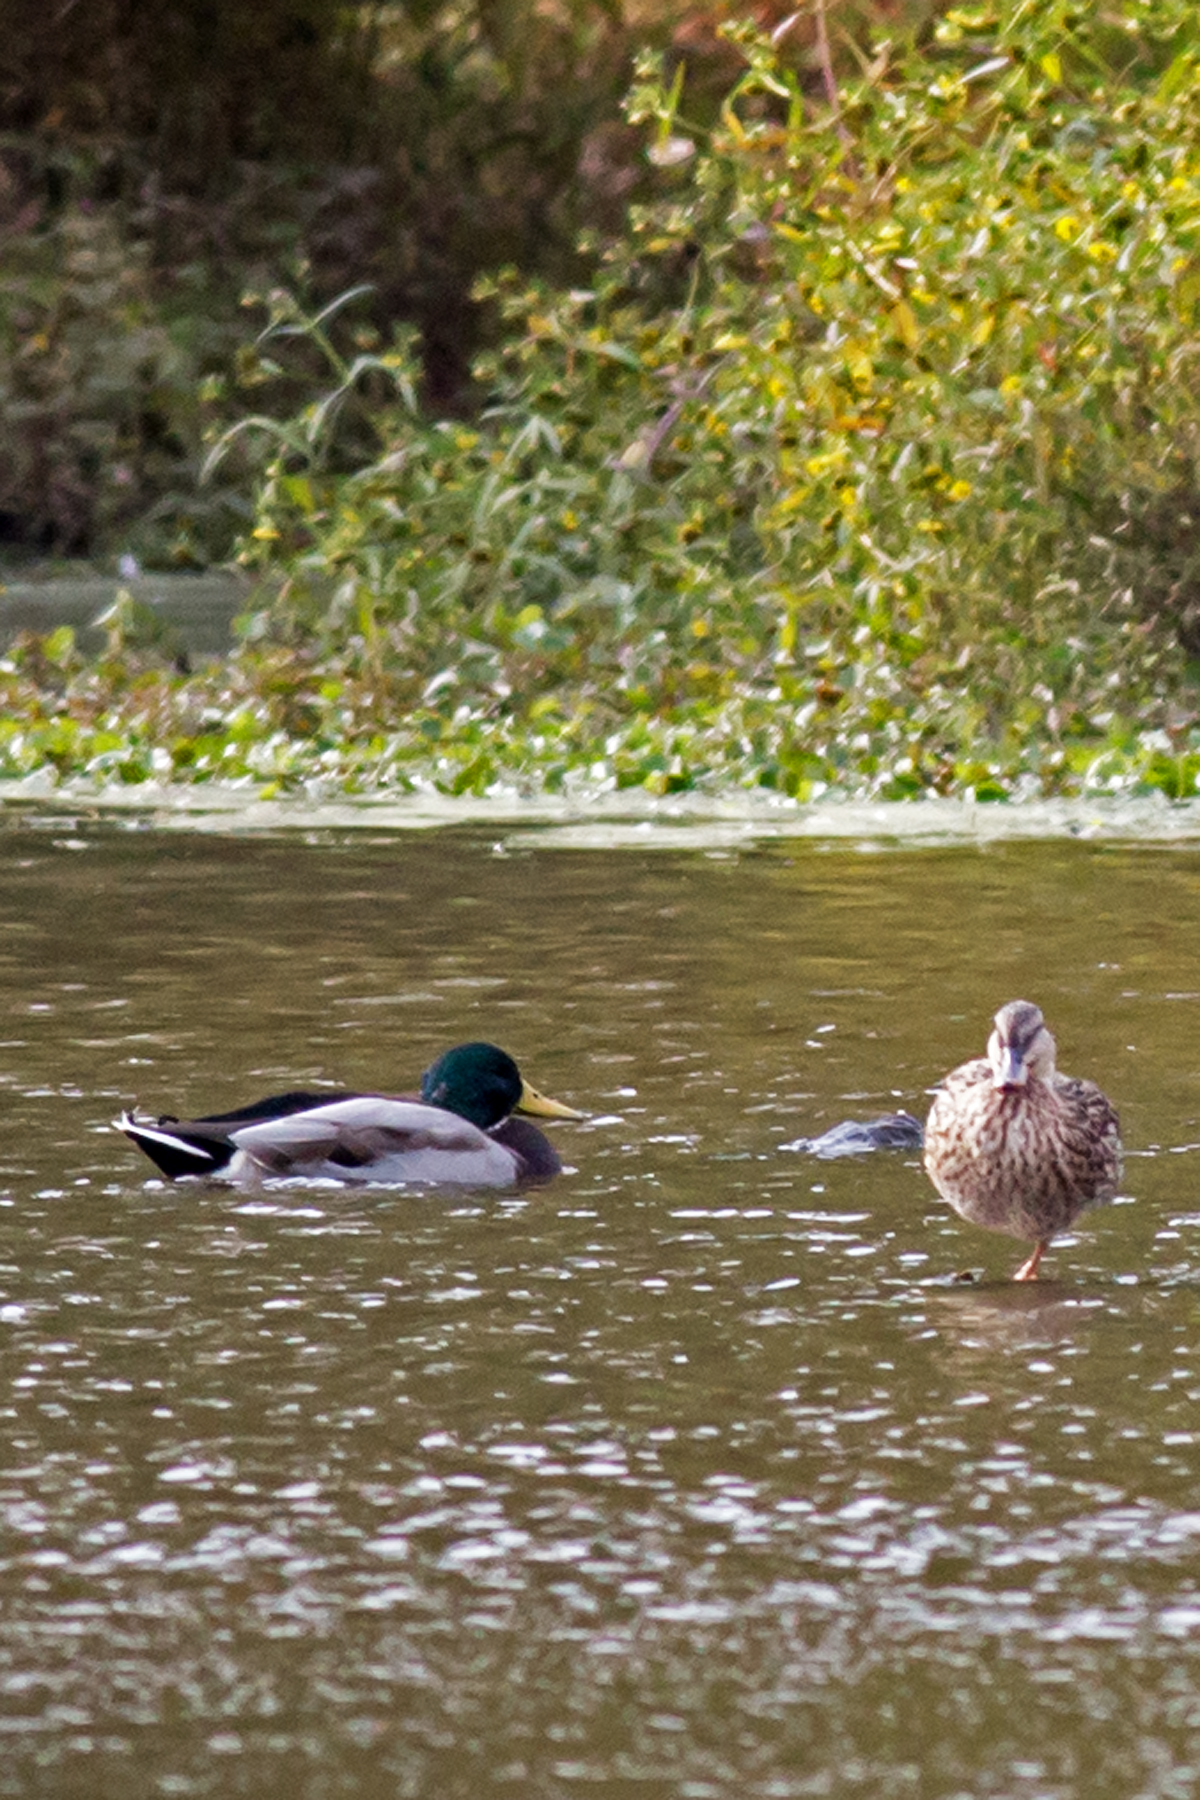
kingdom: Animalia
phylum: Chordata
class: Aves
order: Anseriformes
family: Anatidae
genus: Anas
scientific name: Anas platyrhynchos
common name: Mallard
